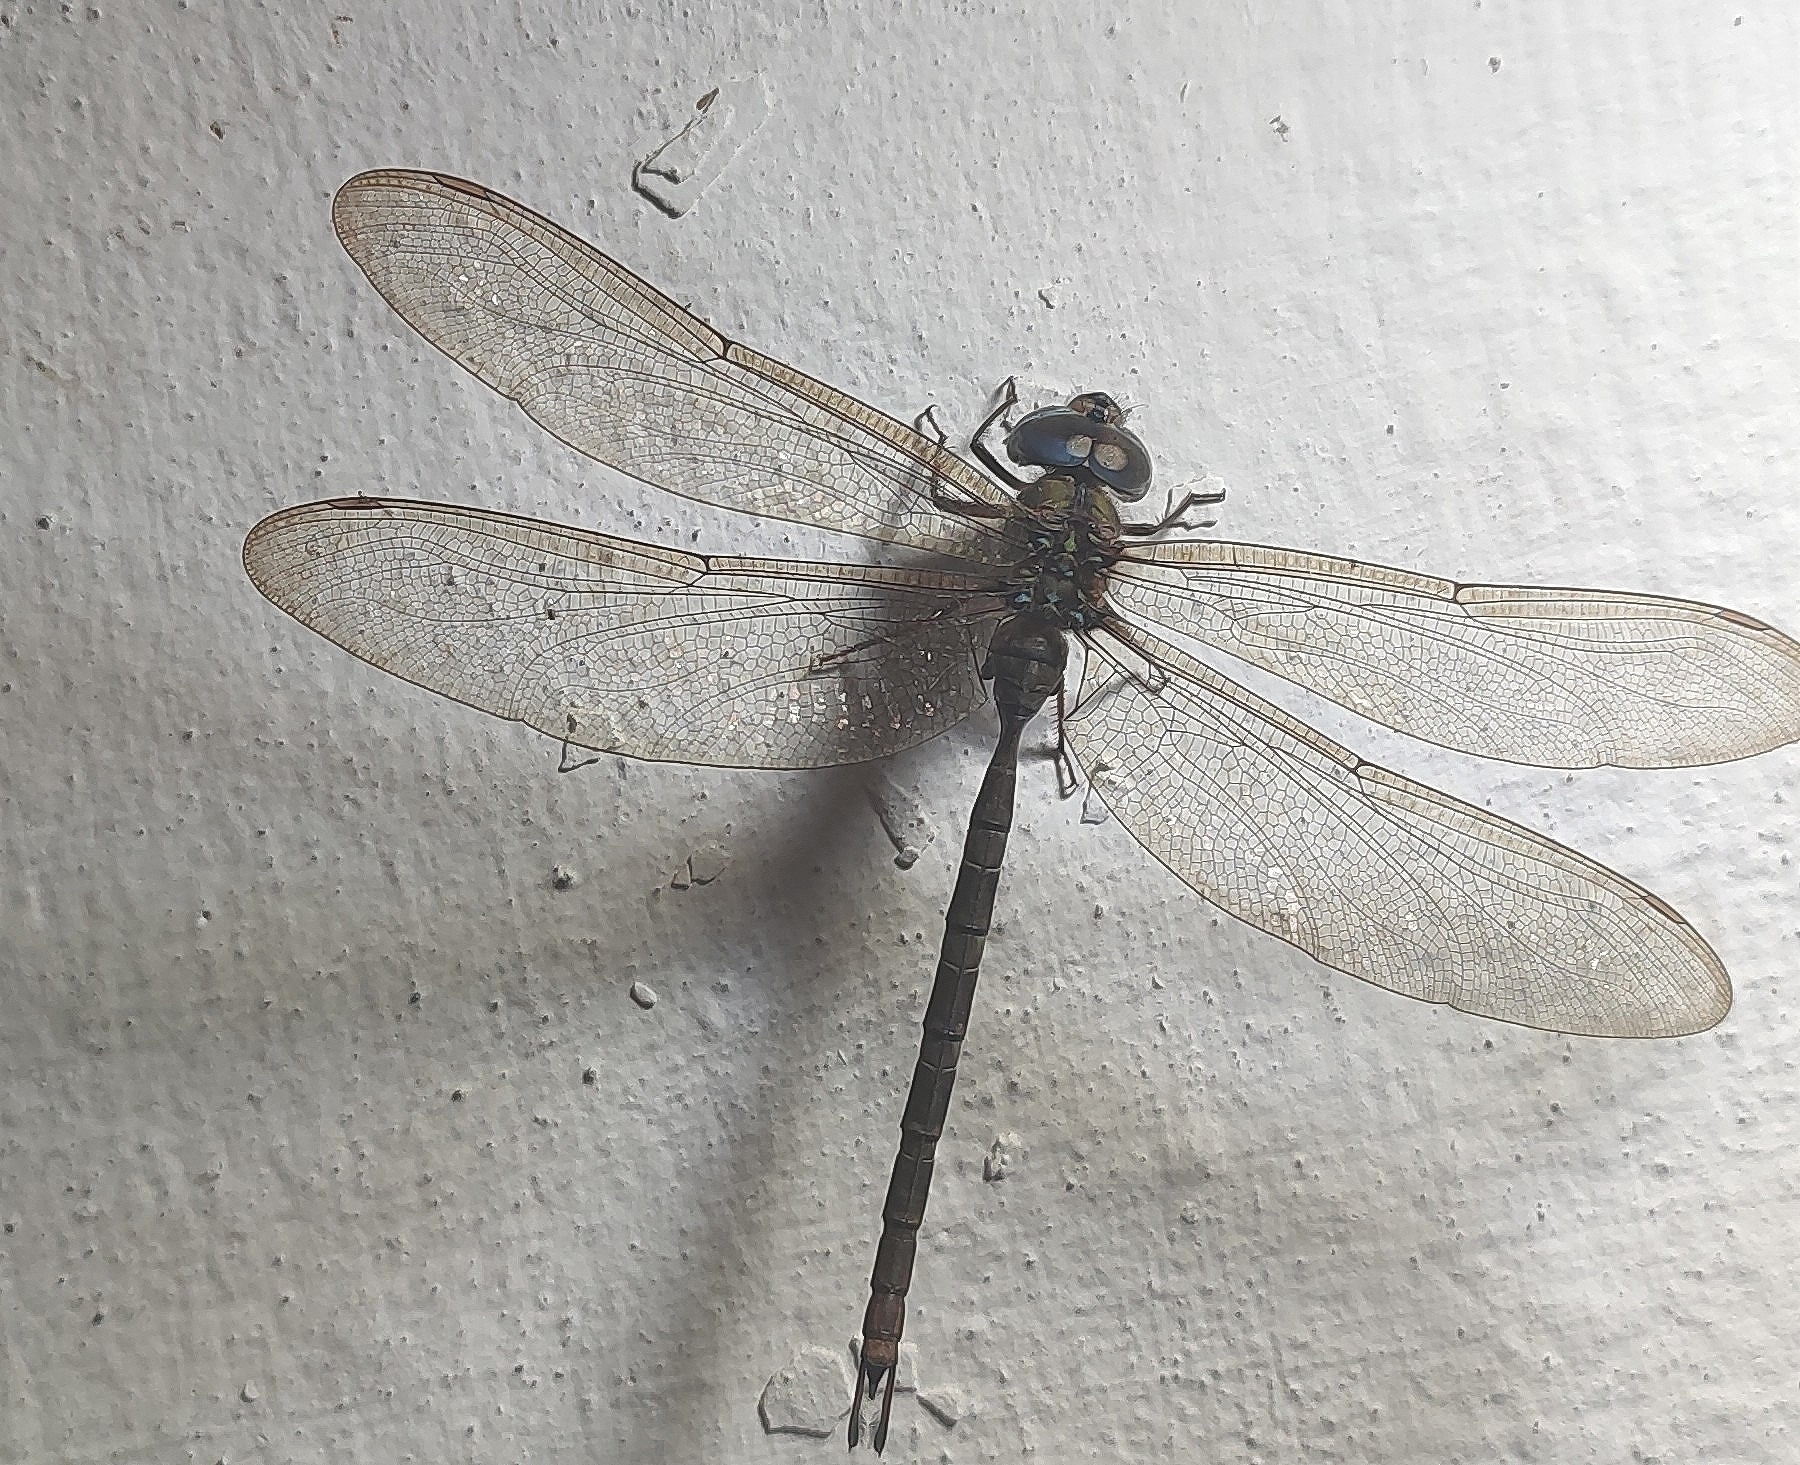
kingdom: Animalia
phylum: Arthropoda
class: Insecta
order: Odonata
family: Aeshnidae
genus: Gynacantha
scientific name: Gynacantha dravida
